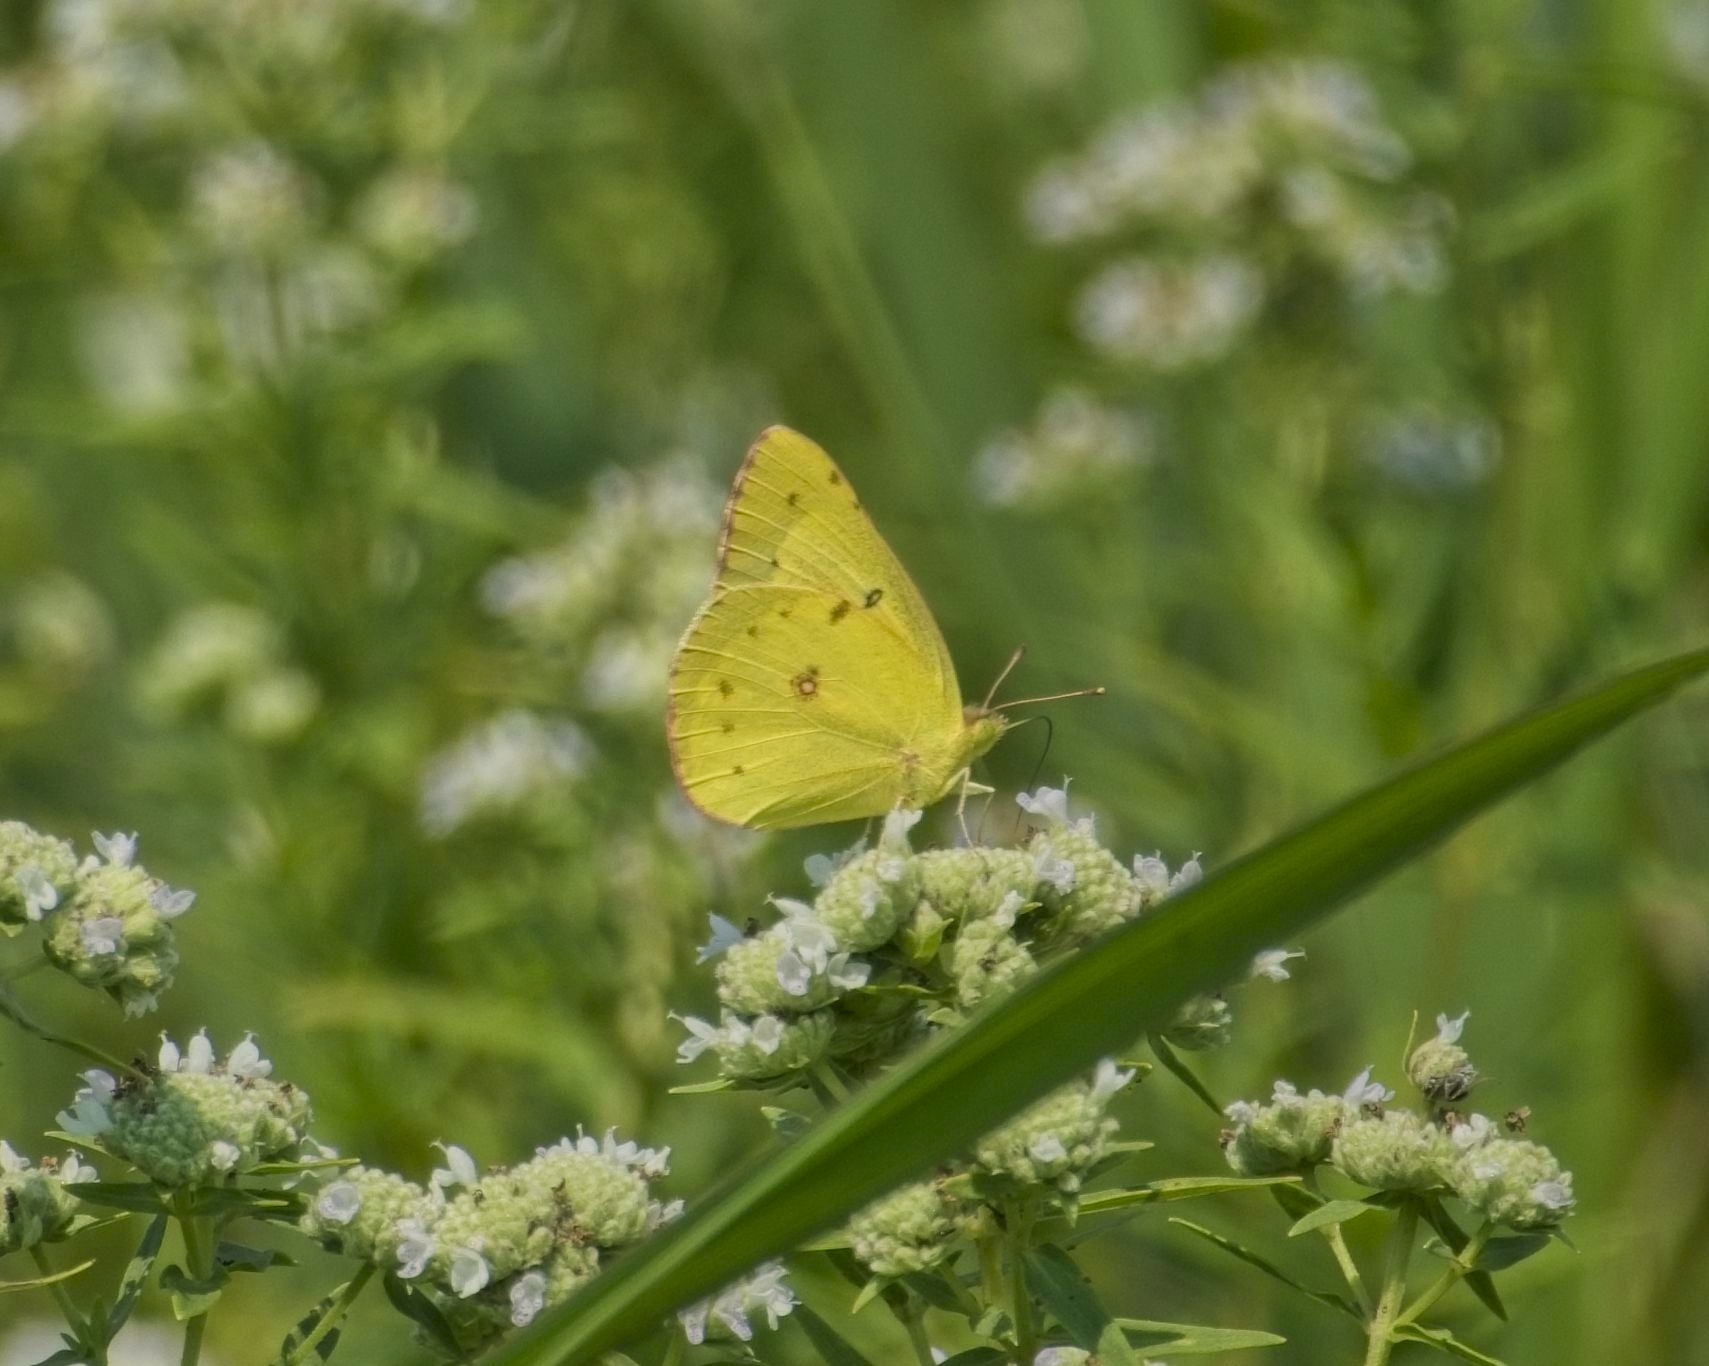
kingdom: Animalia
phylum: Arthropoda
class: Insecta
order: Lepidoptera
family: Pieridae
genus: Colias
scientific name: Colias philodice
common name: Clouded sulphur
